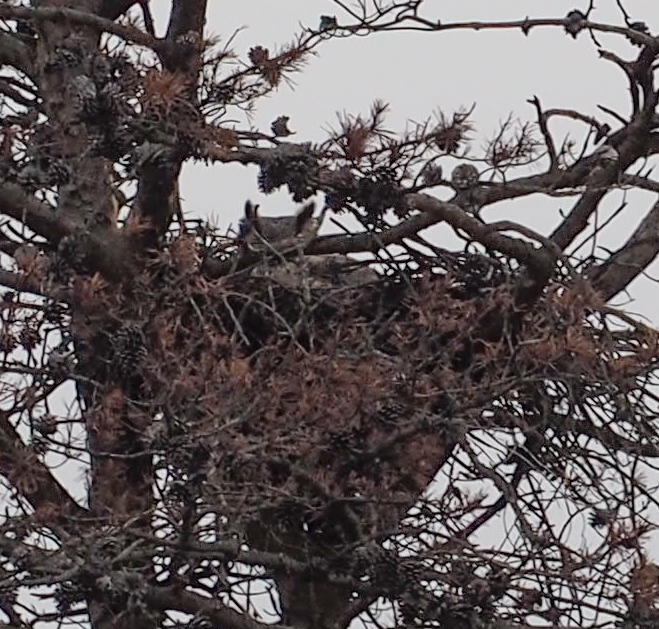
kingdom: Animalia
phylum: Chordata
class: Aves
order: Strigiformes
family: Strigidae
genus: Bubo
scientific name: Bubo virginianus
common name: Great horned owl
